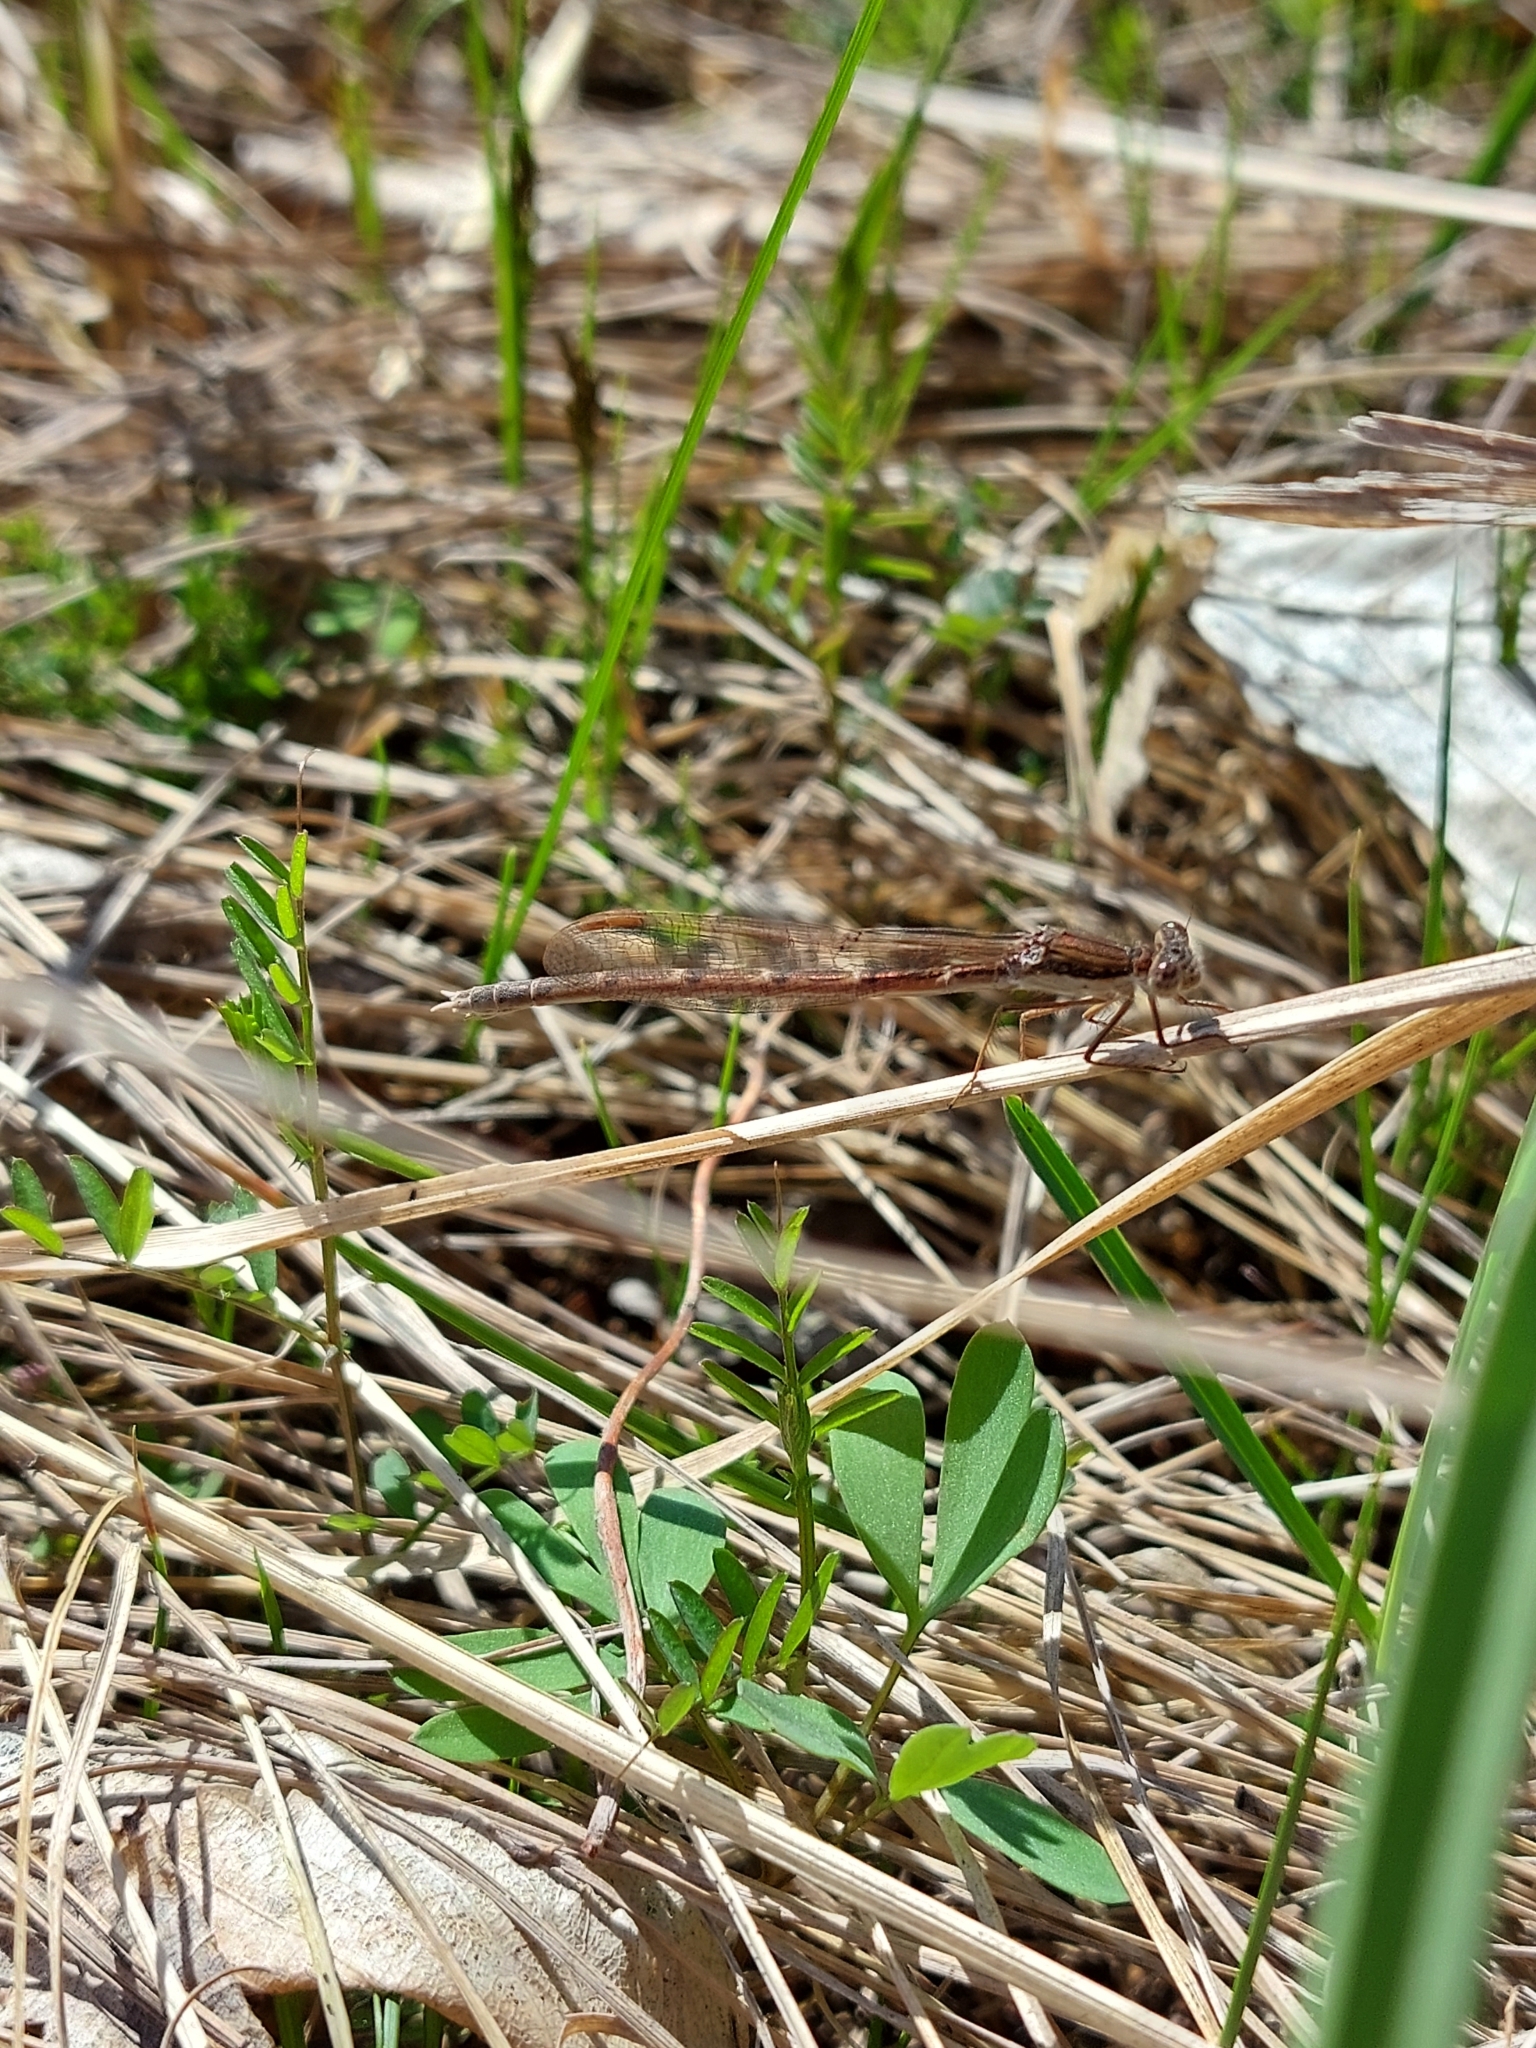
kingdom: Animalia
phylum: Arthropoda
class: Insecta
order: Odonata
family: Lestidae
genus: Sympecma
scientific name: Sympecma fusca
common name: Common winter damsel
